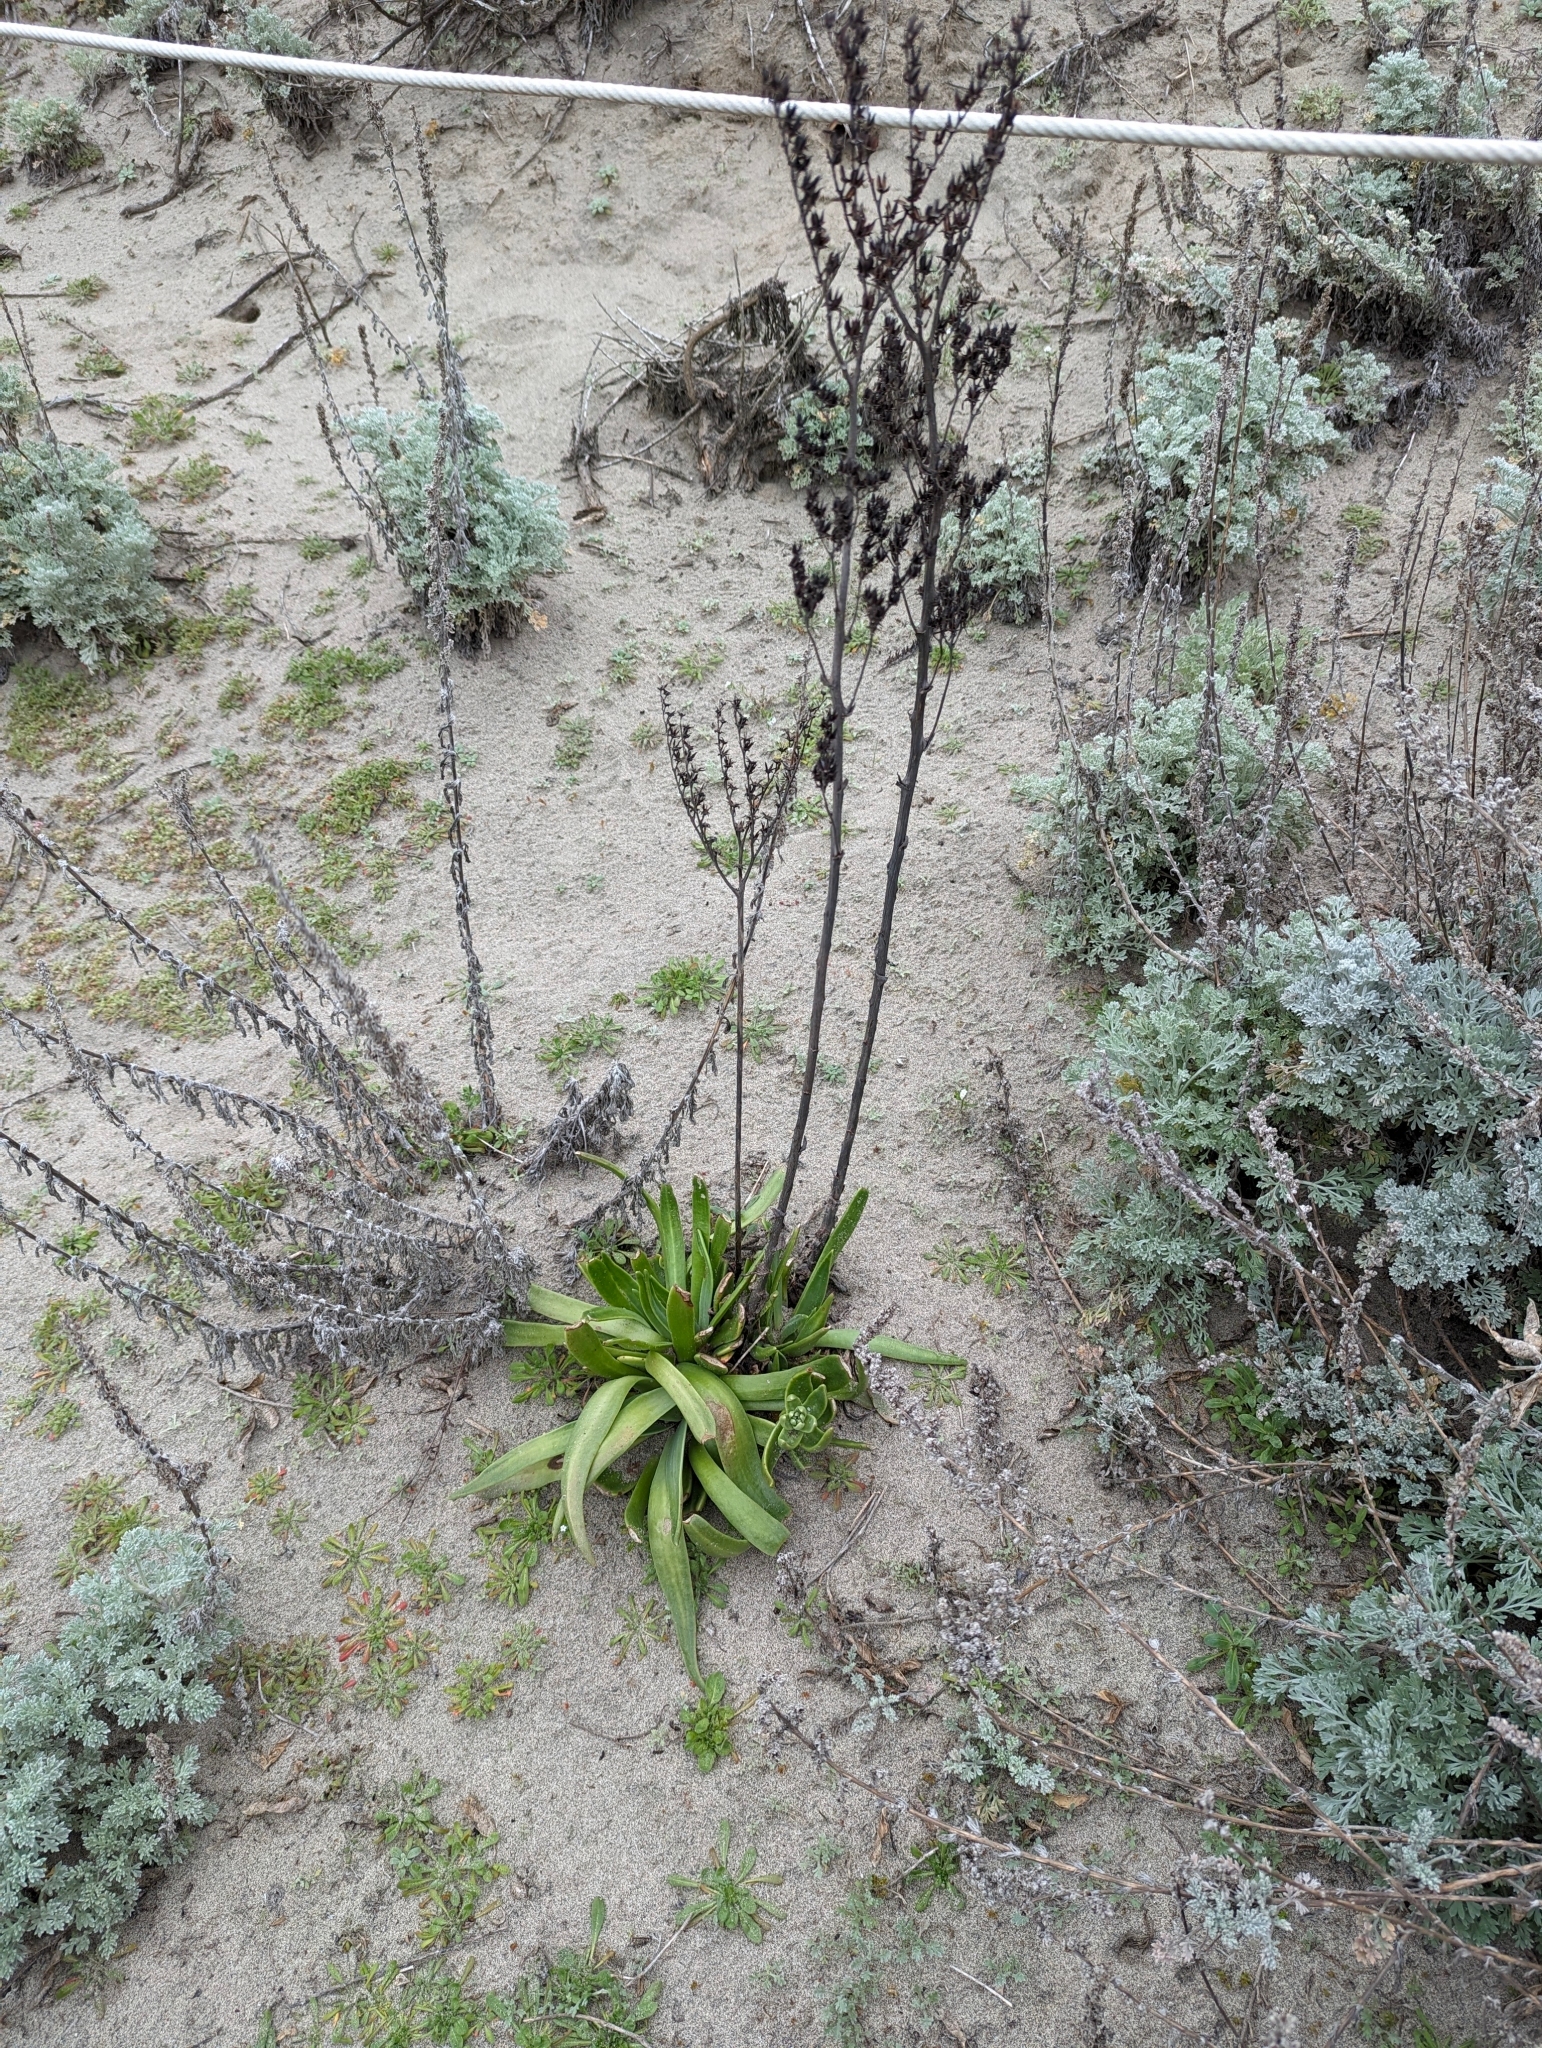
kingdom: Plantae
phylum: Tracheophyta
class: Magnoliopsida
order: Saxifragales
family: Crassulaceae
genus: Dudleya
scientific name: Dudleya caespitosa
